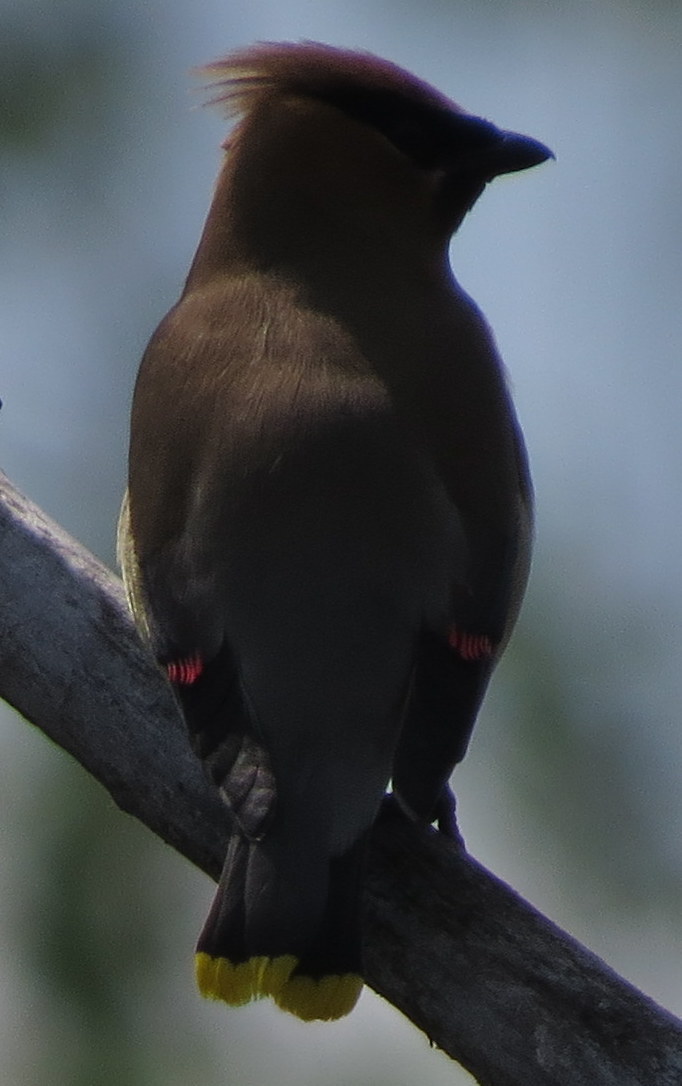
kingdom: Animalia
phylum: Chordata
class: Aves
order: Passeriformes
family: Bombycillidae
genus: Bombycilla
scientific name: Bombycilla cedrorum
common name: Cedar waxwing
